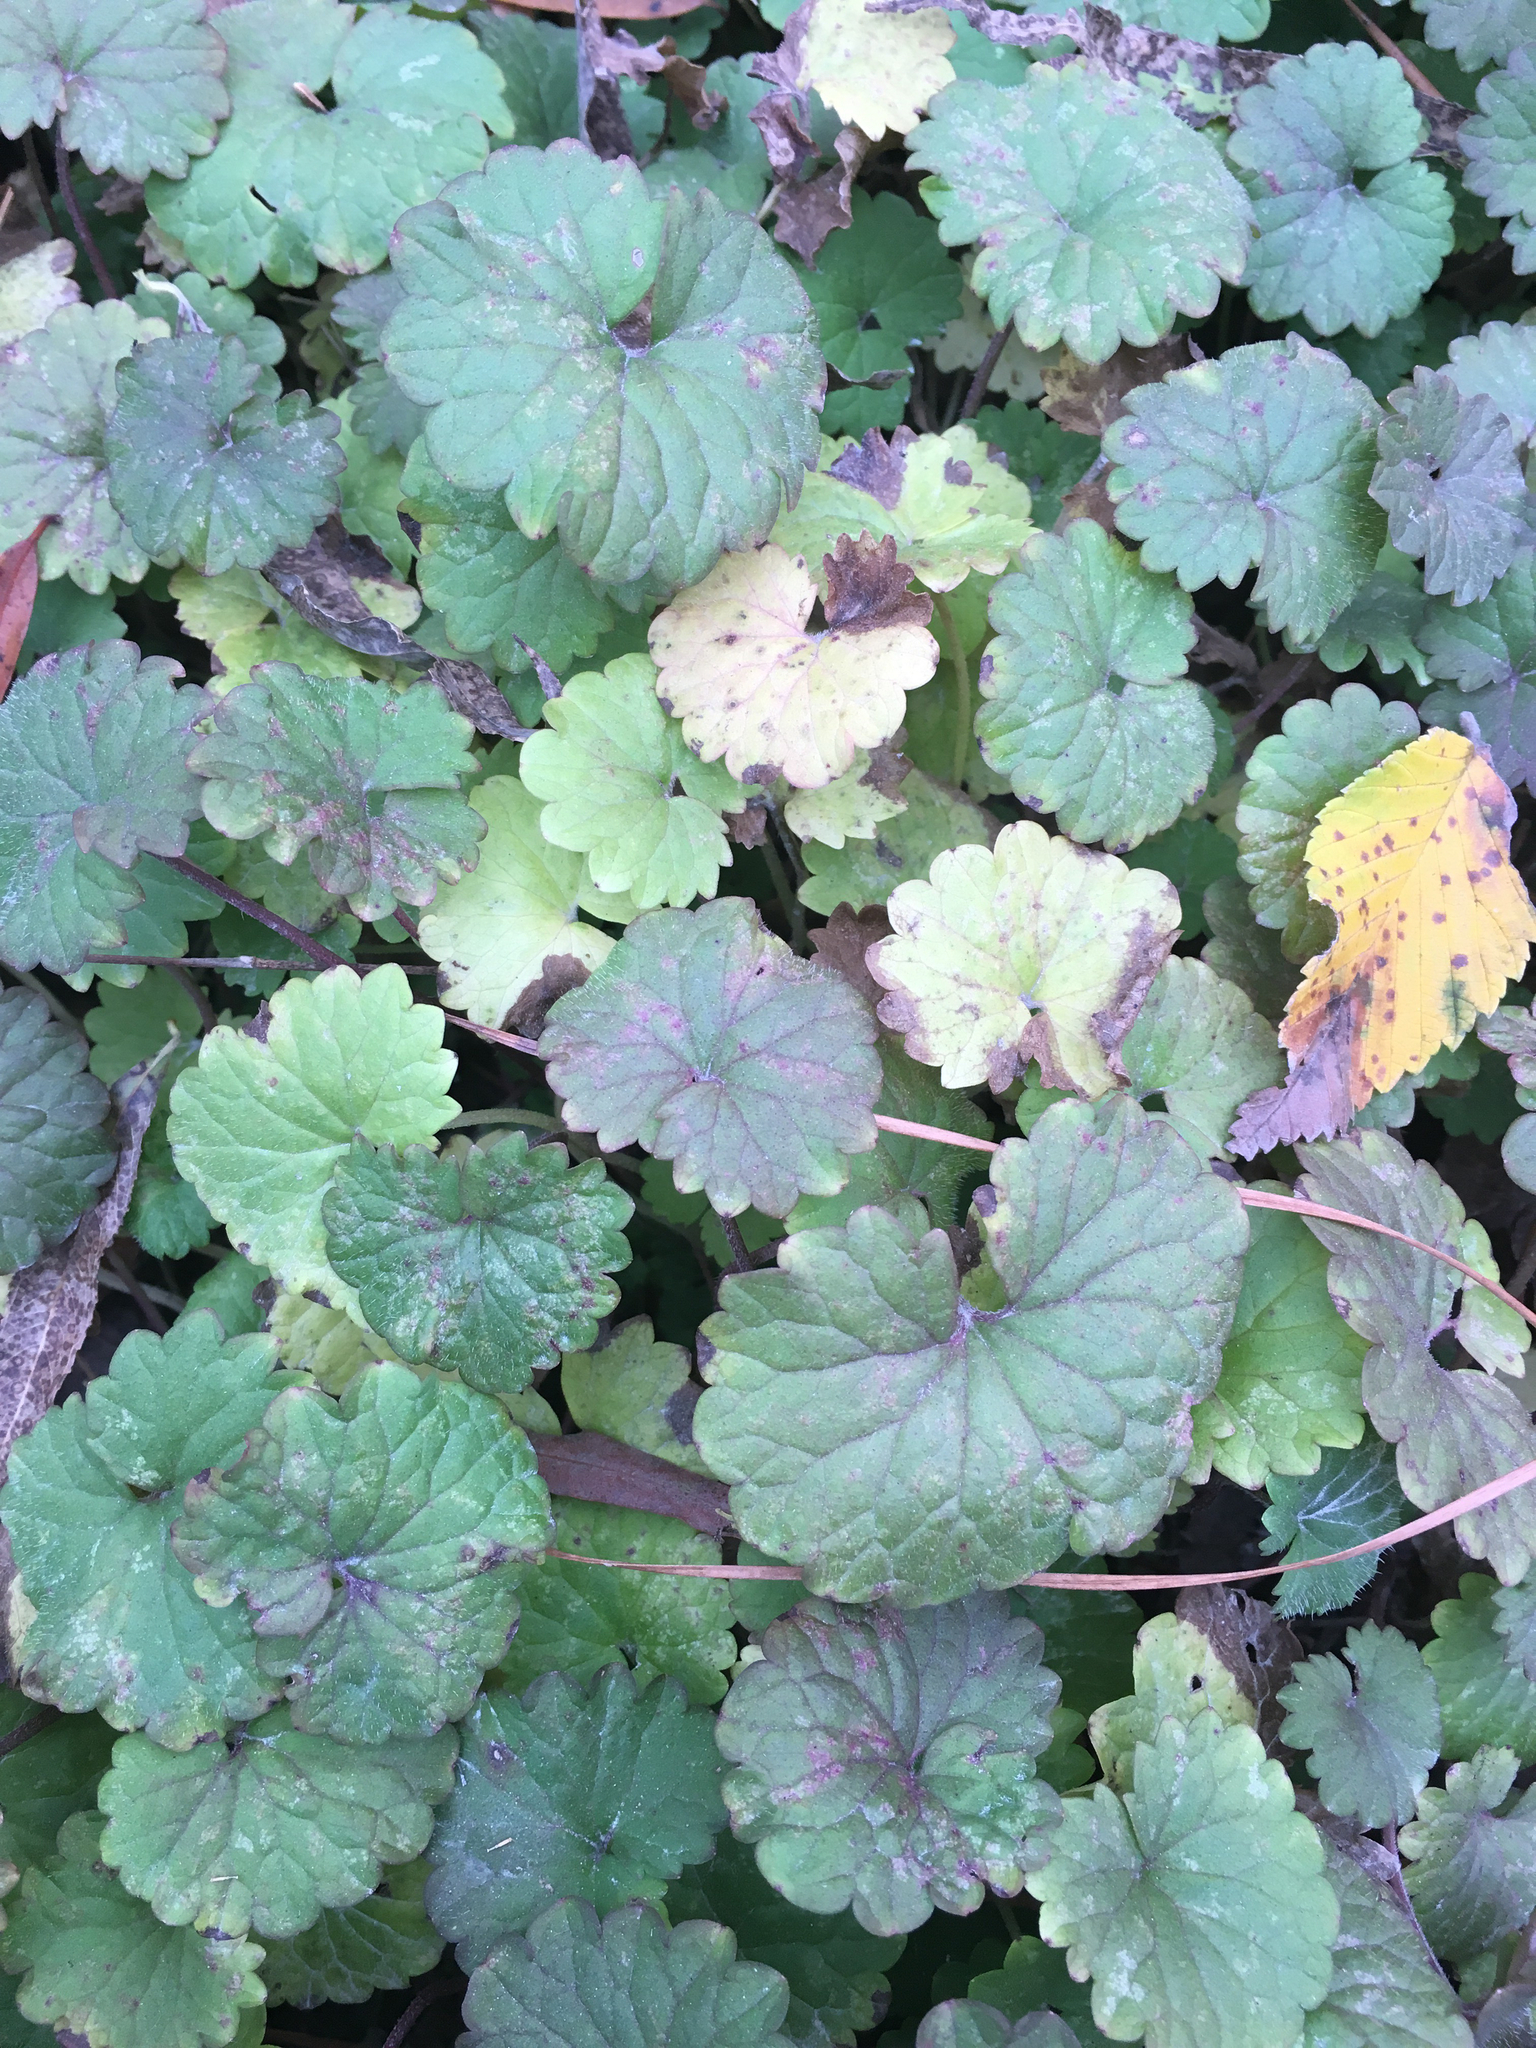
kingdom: Plantae
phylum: Tracheophyta
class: Magnoliopsida
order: Lamiales
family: Lamiaceae
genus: Glechoma
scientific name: Glechoma hederacea
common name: Ground ivy
